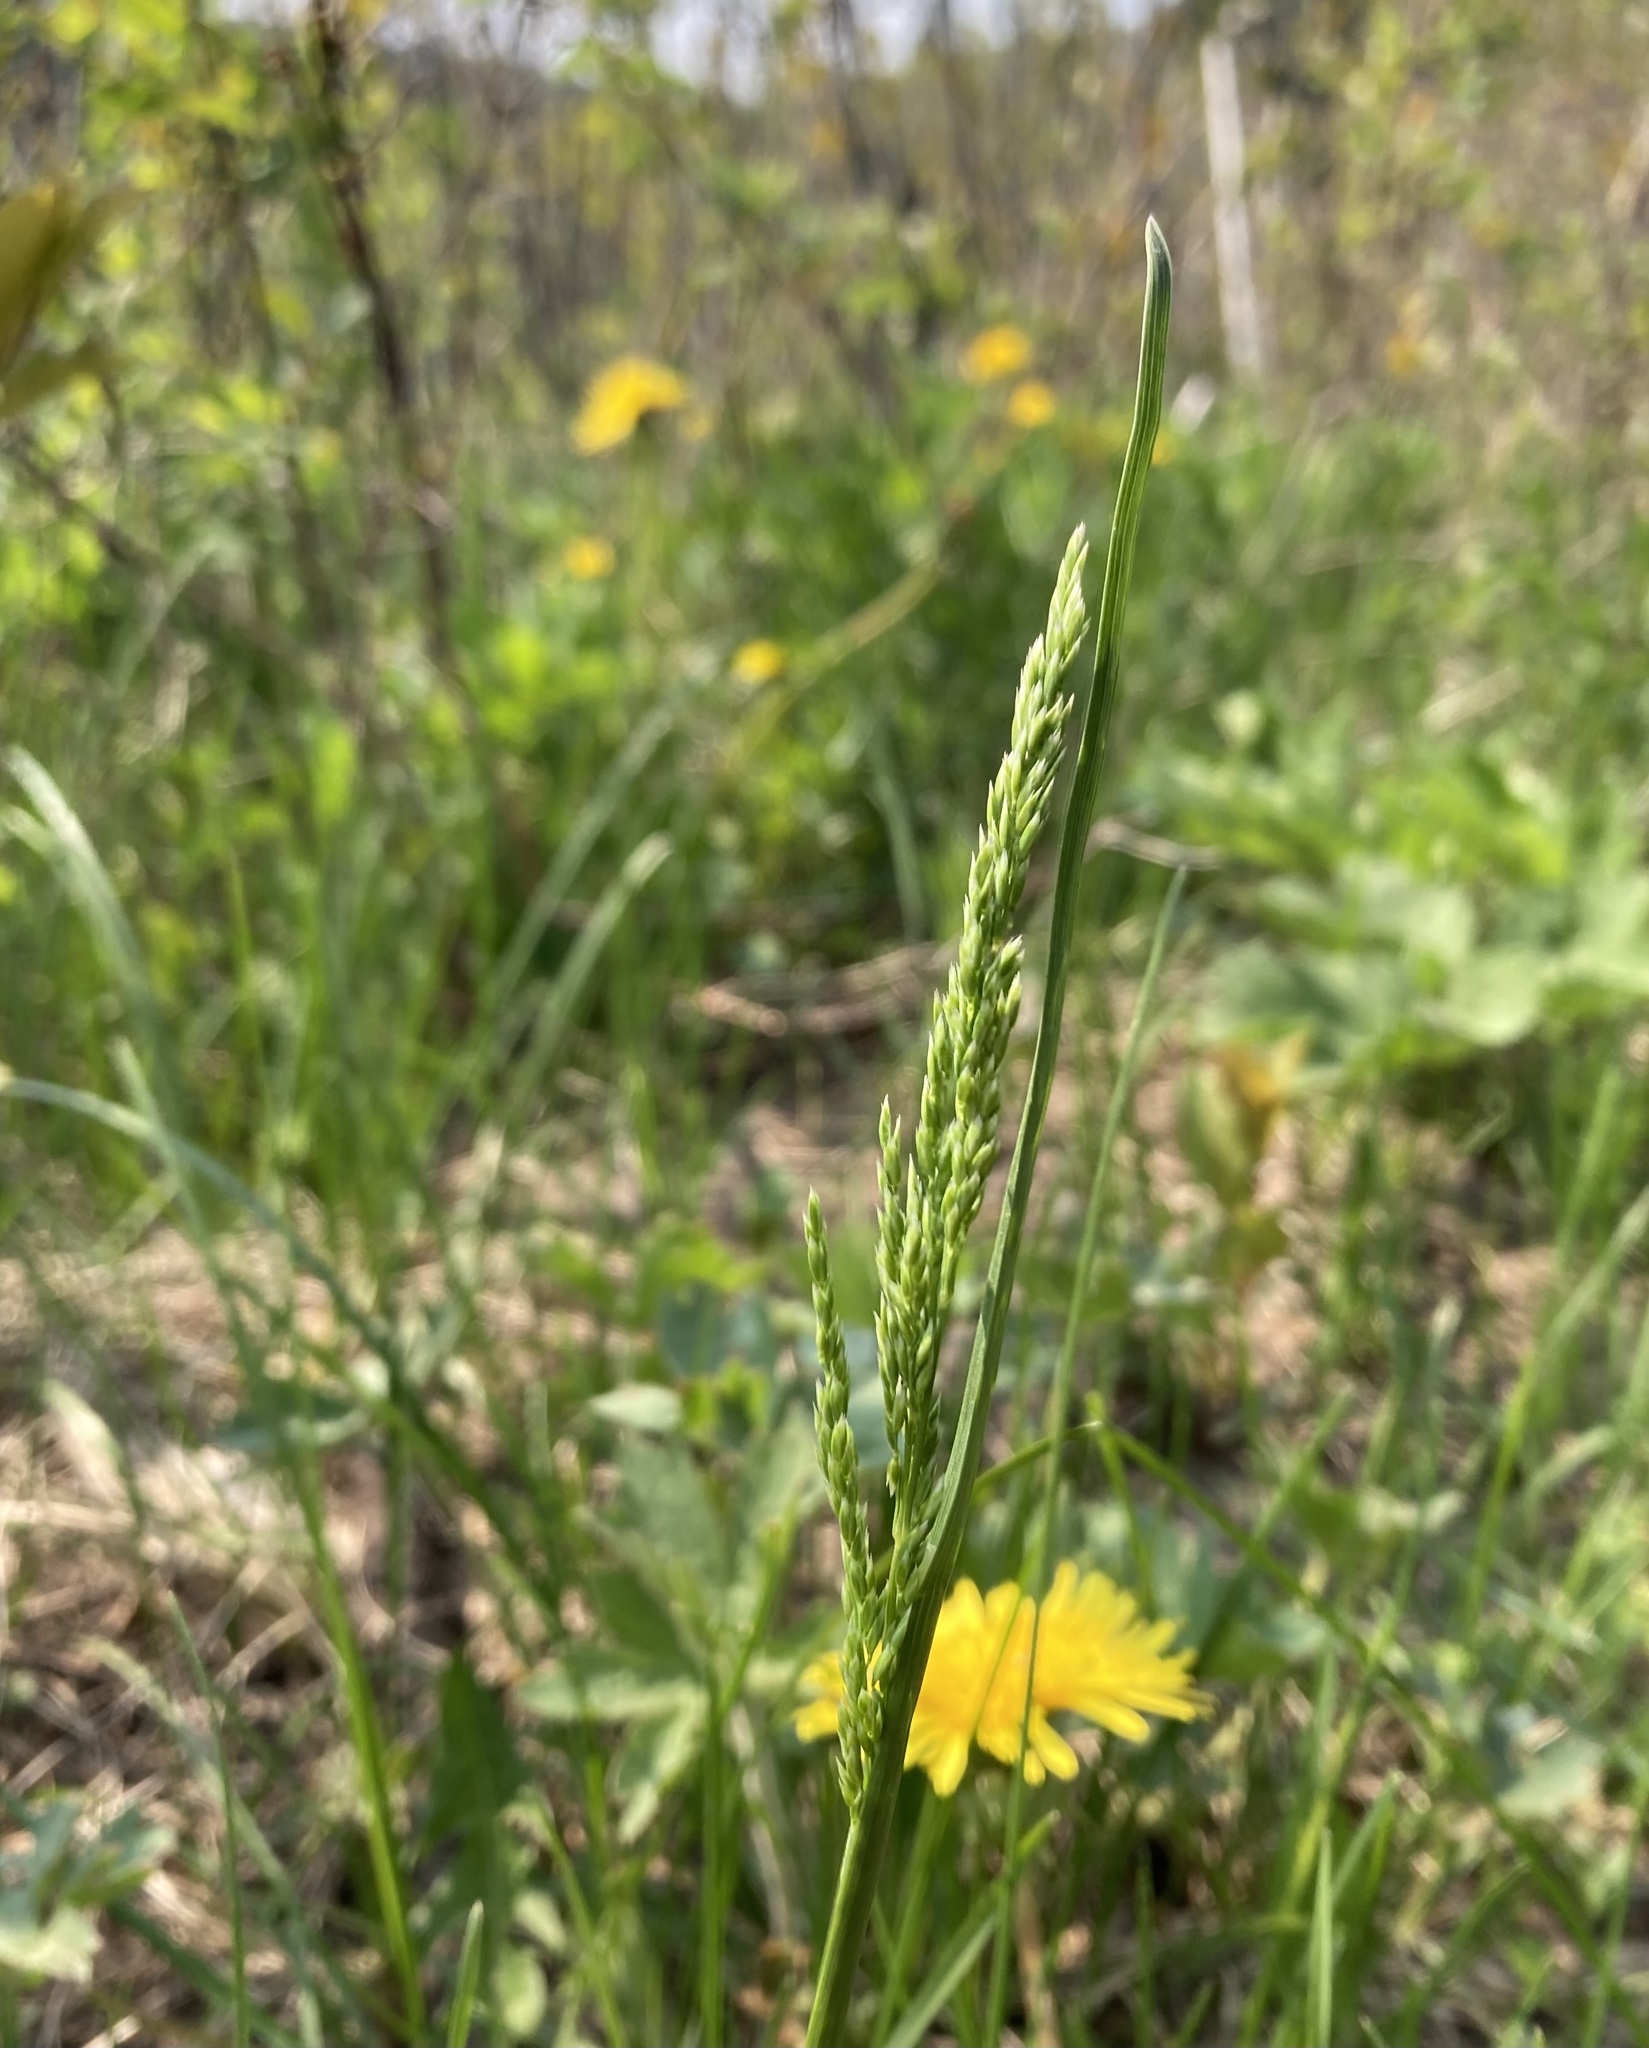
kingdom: Plantae
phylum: Tracheophyta
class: Liliopsida
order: Poales
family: Poaceae
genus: Poa
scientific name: Poa pratensis
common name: Kentucky bluegrass
